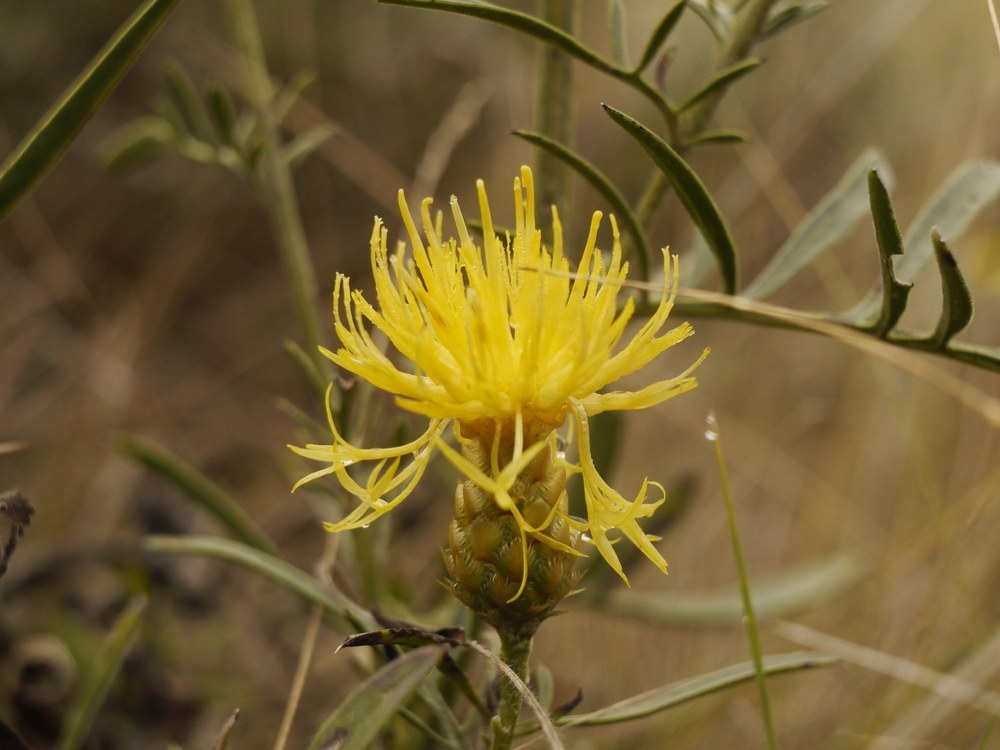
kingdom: Plantae
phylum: Tracheophyta
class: Magnoliopsida
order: Asterales
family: Asteraceae
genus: Centaurea
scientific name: Centaurea orientalis
